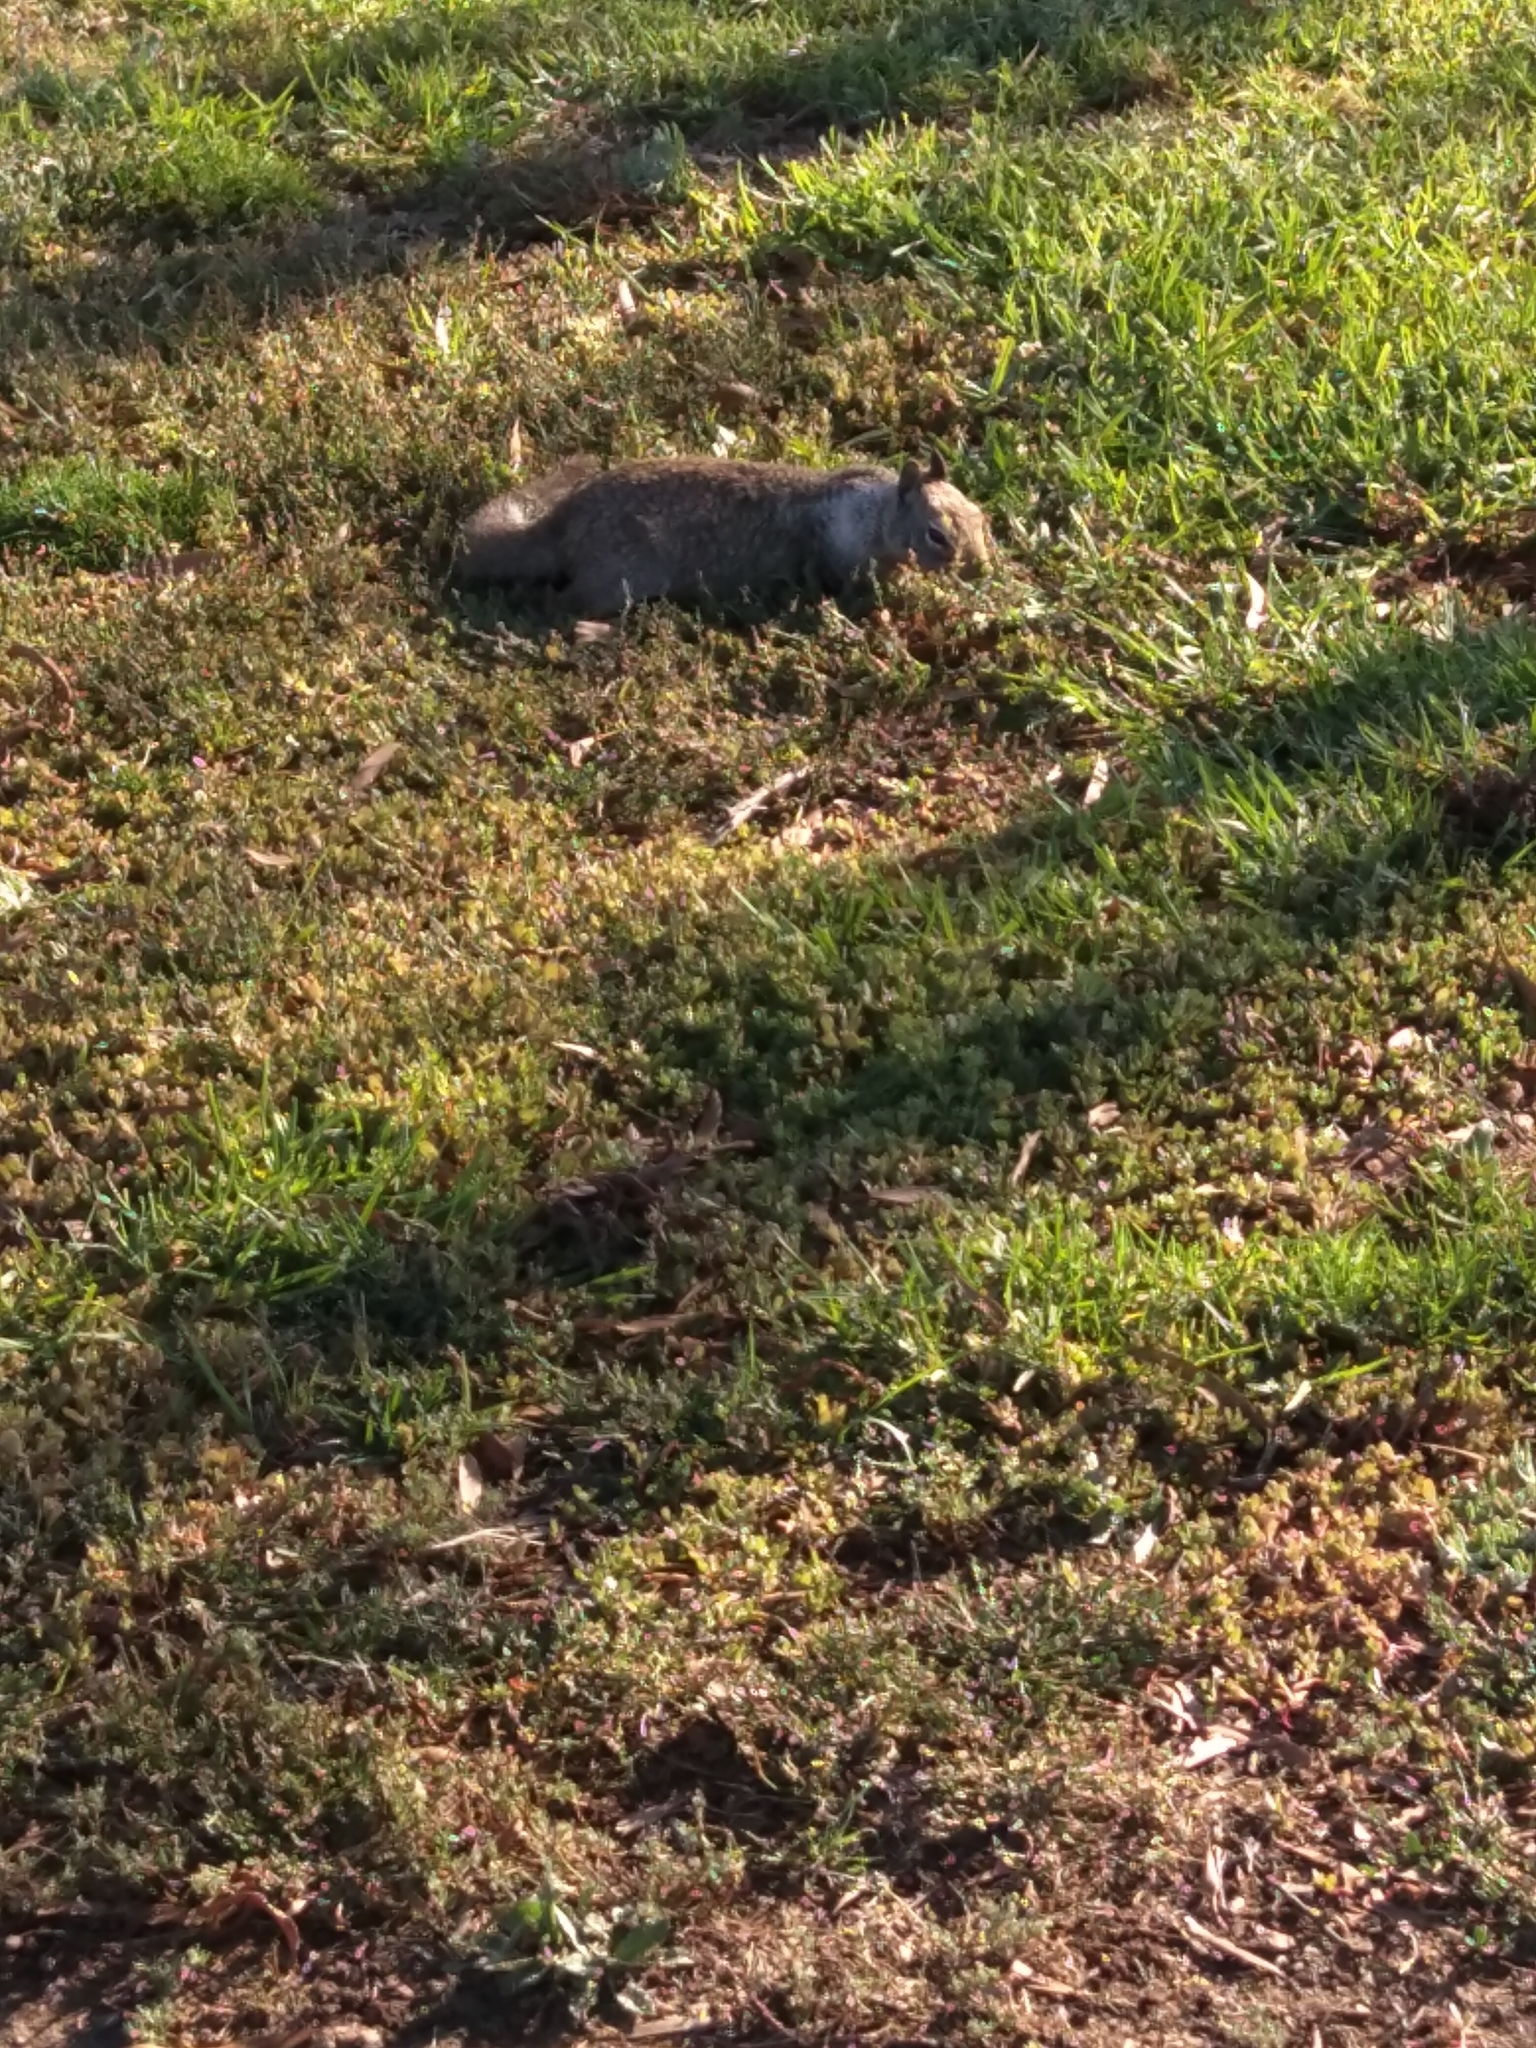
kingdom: Animalia
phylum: Chordata
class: Mammalia
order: Rodentia
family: Sciuridae
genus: Otospermophilus
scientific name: Otospermophilus beecheyi
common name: California ground squirrel
